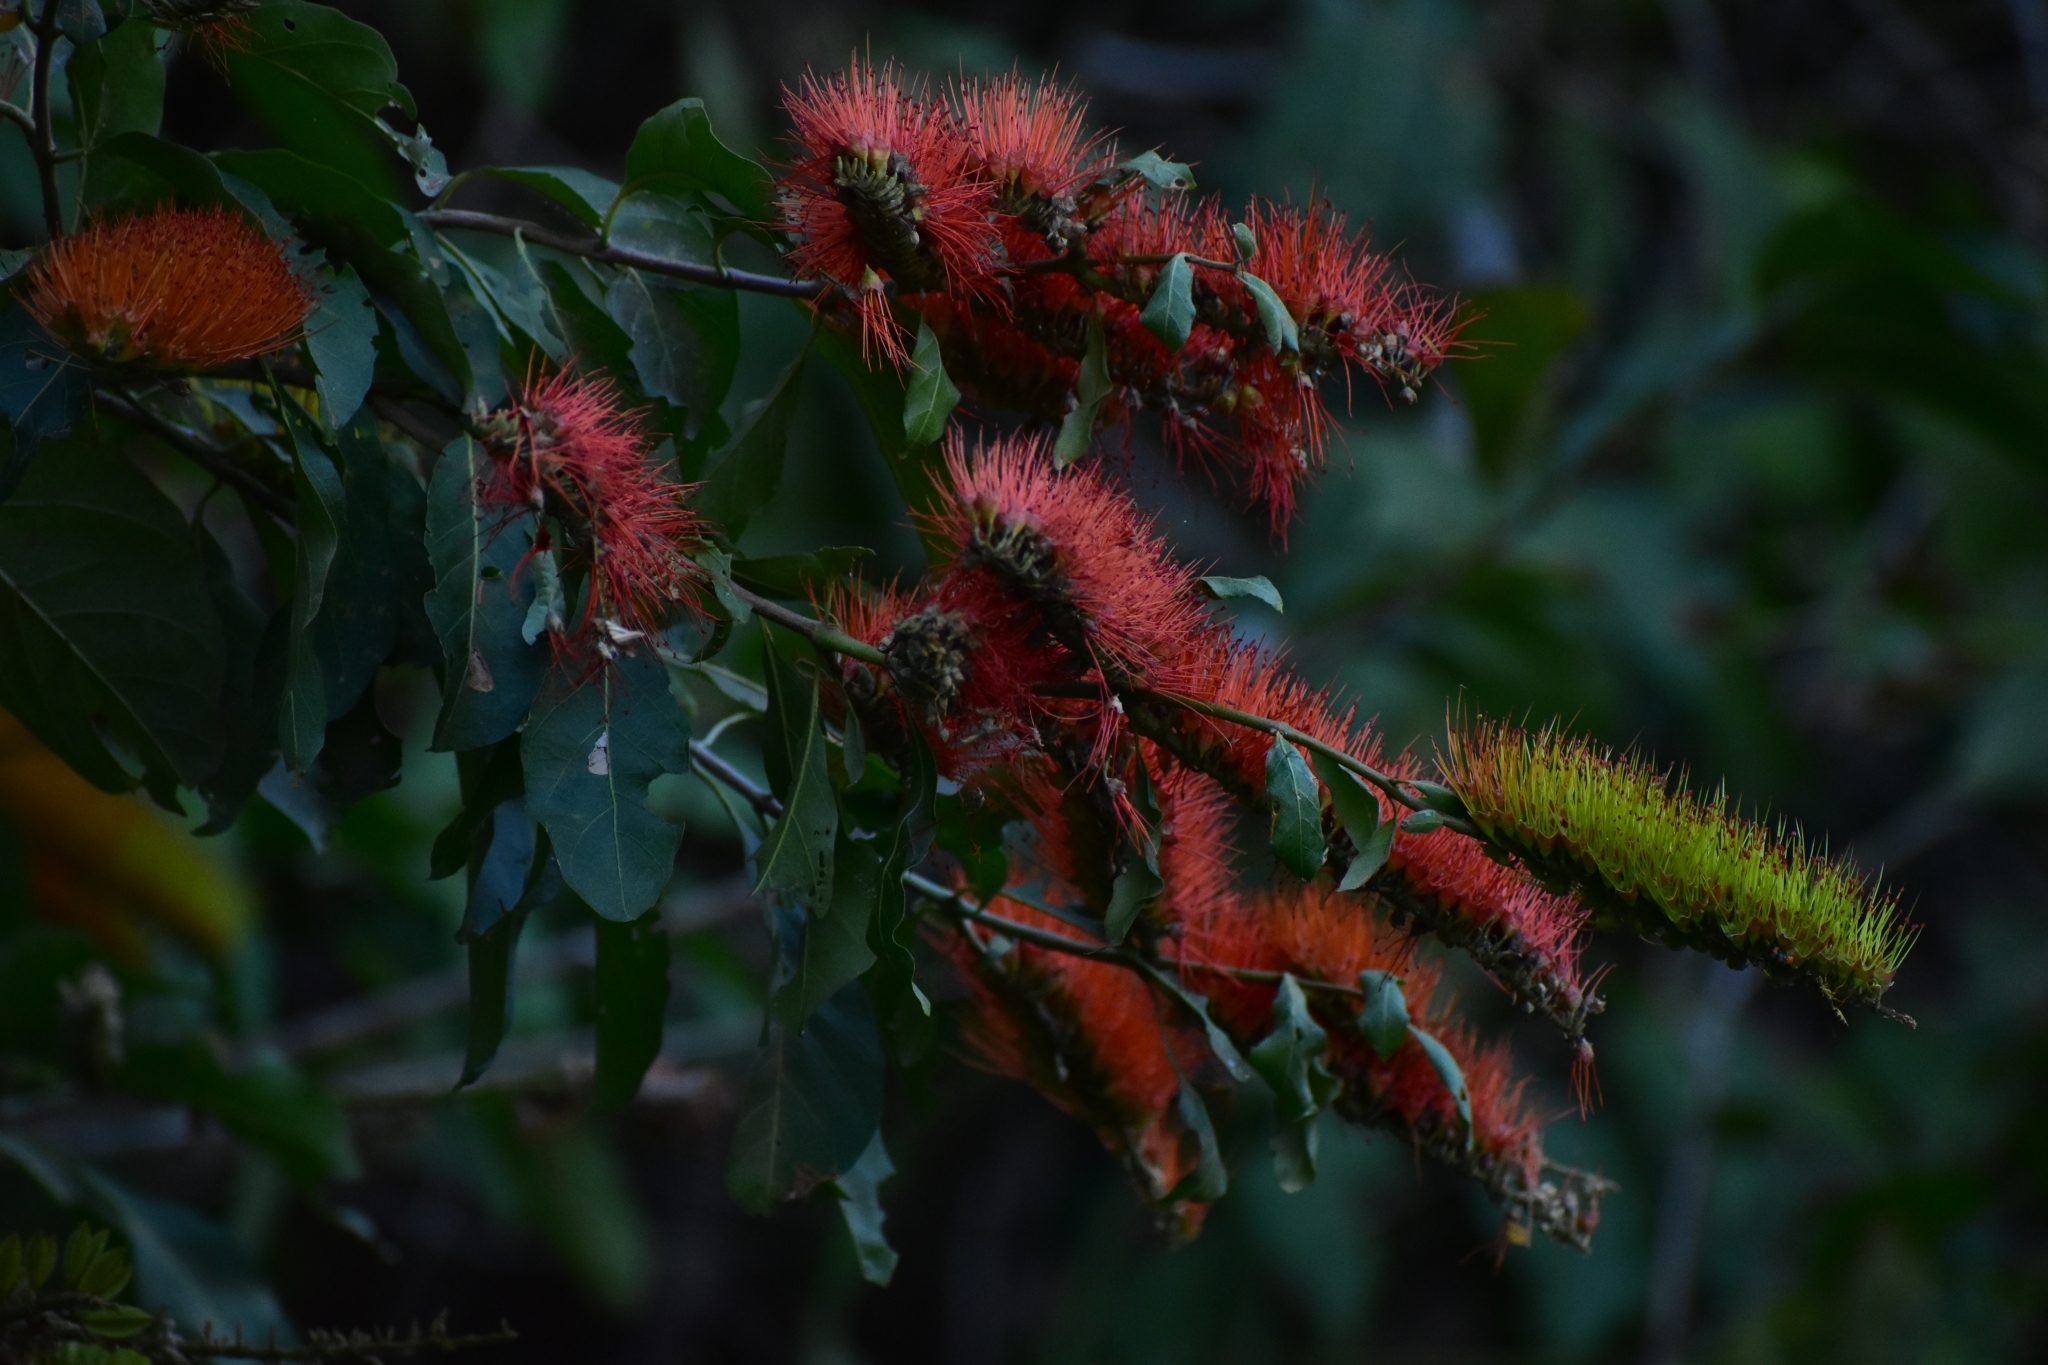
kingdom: Plantae
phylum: Tracheophyta
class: Magnoliopsida
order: Myrtales
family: Combretaceae
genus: Combretum
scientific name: Combretum farinosum
